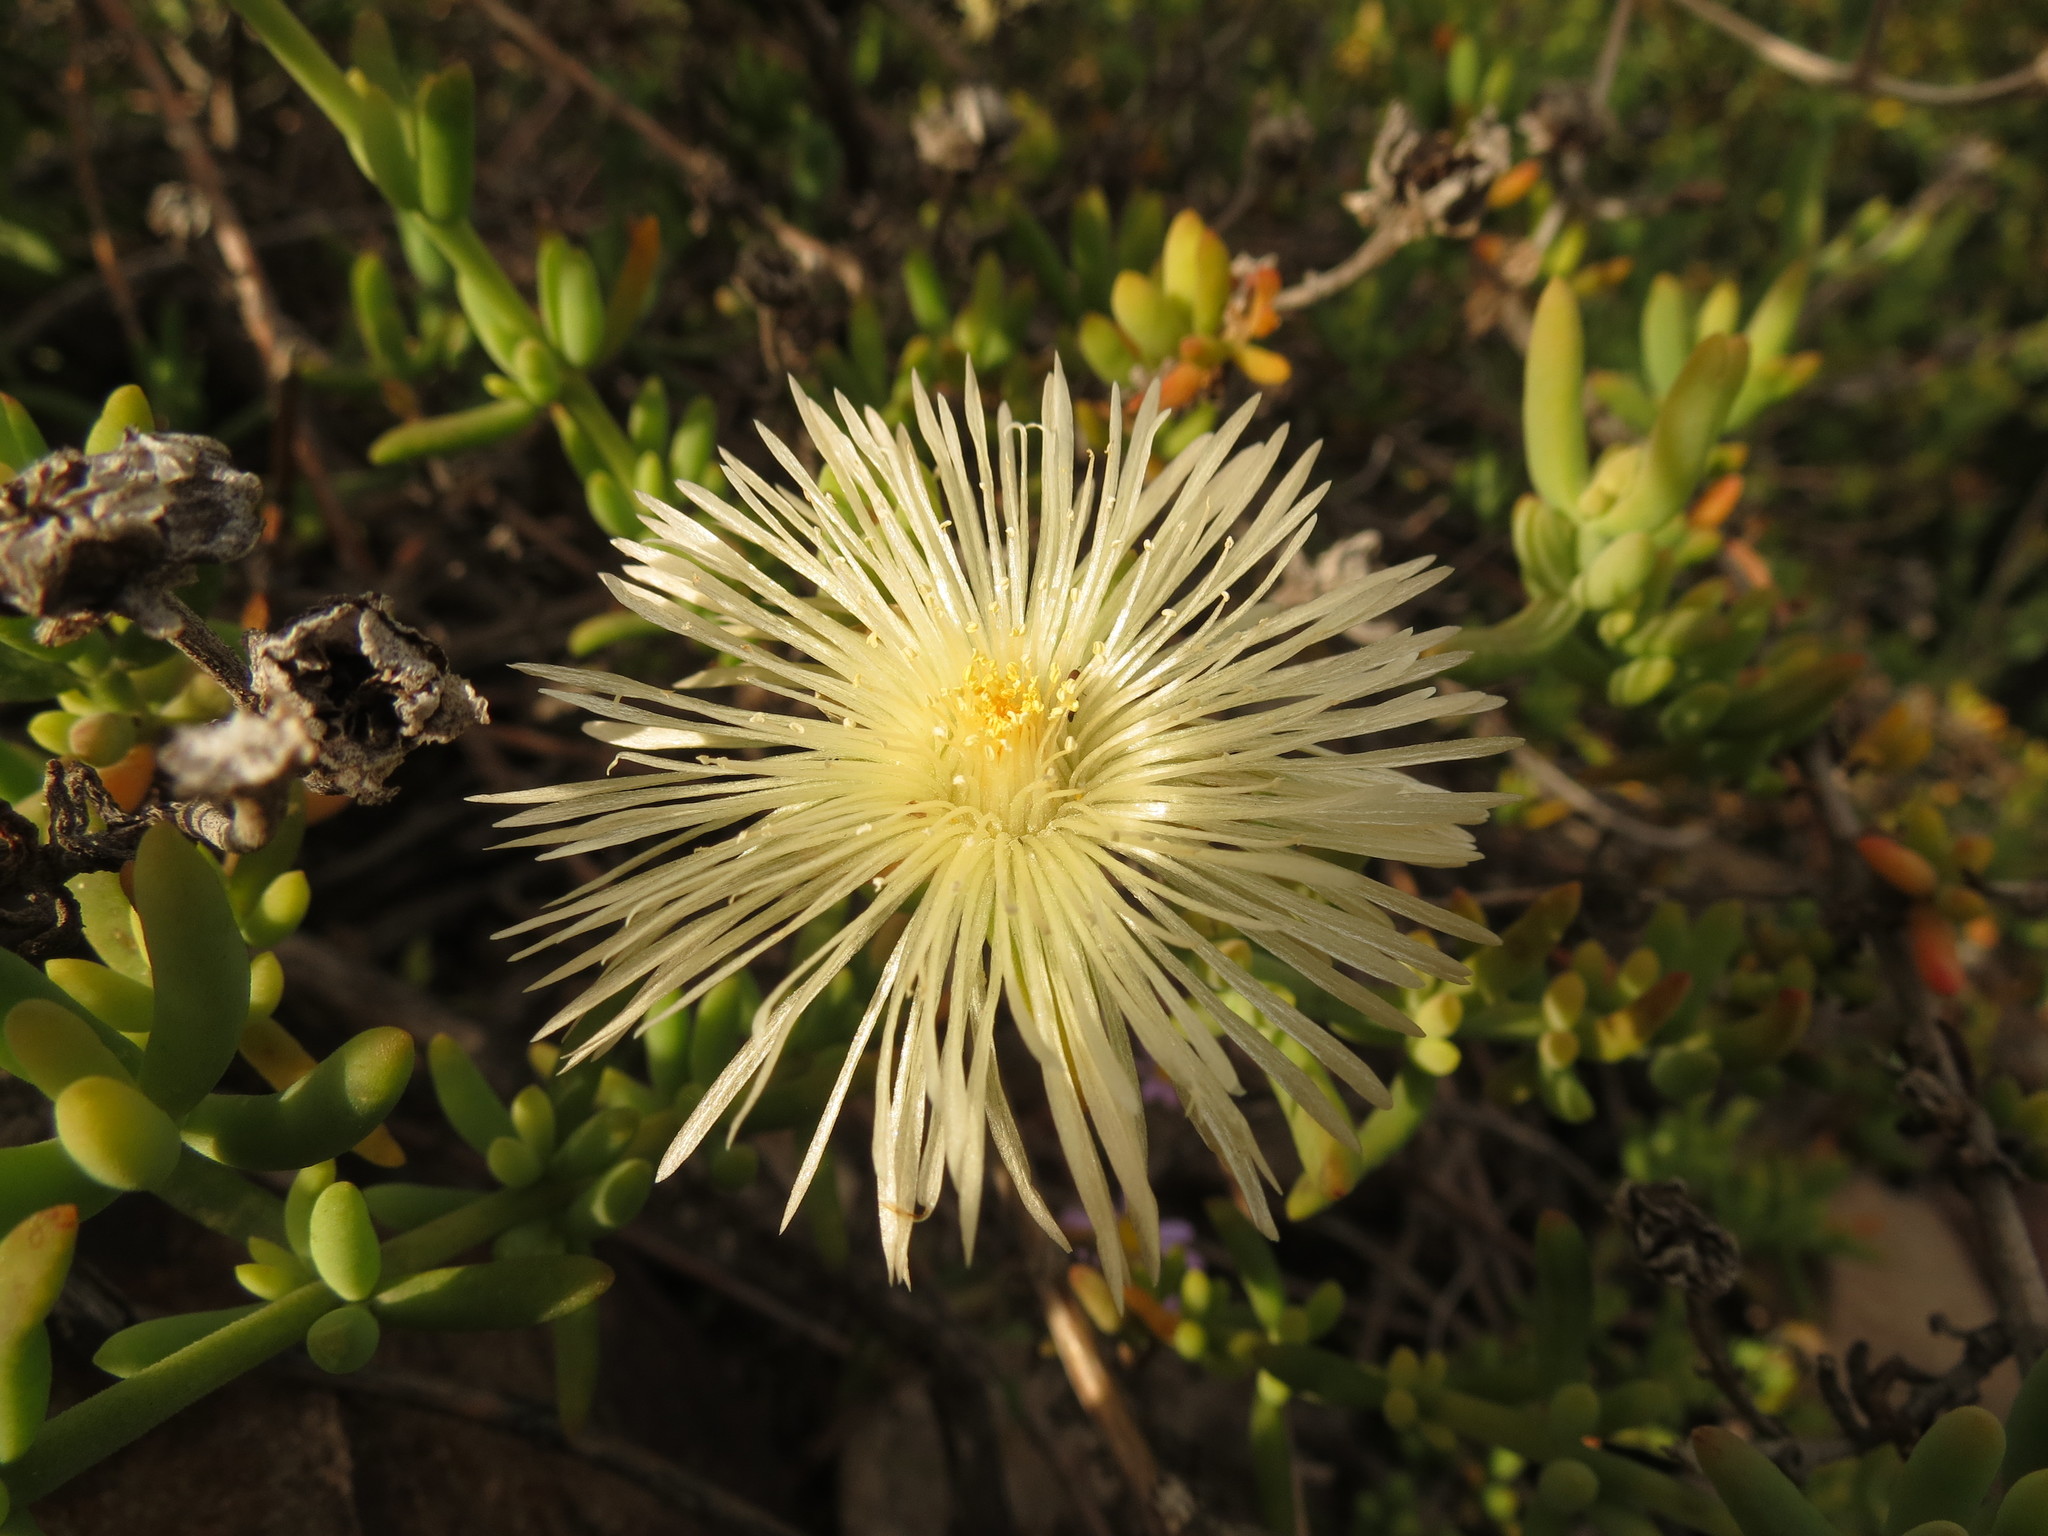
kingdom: Plantae
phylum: Tracheophyta
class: Magnoliopsida
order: Caryophyllales
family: Aizoaceae
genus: Mesembryanthemum
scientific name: Mesembryanthemum splendens
